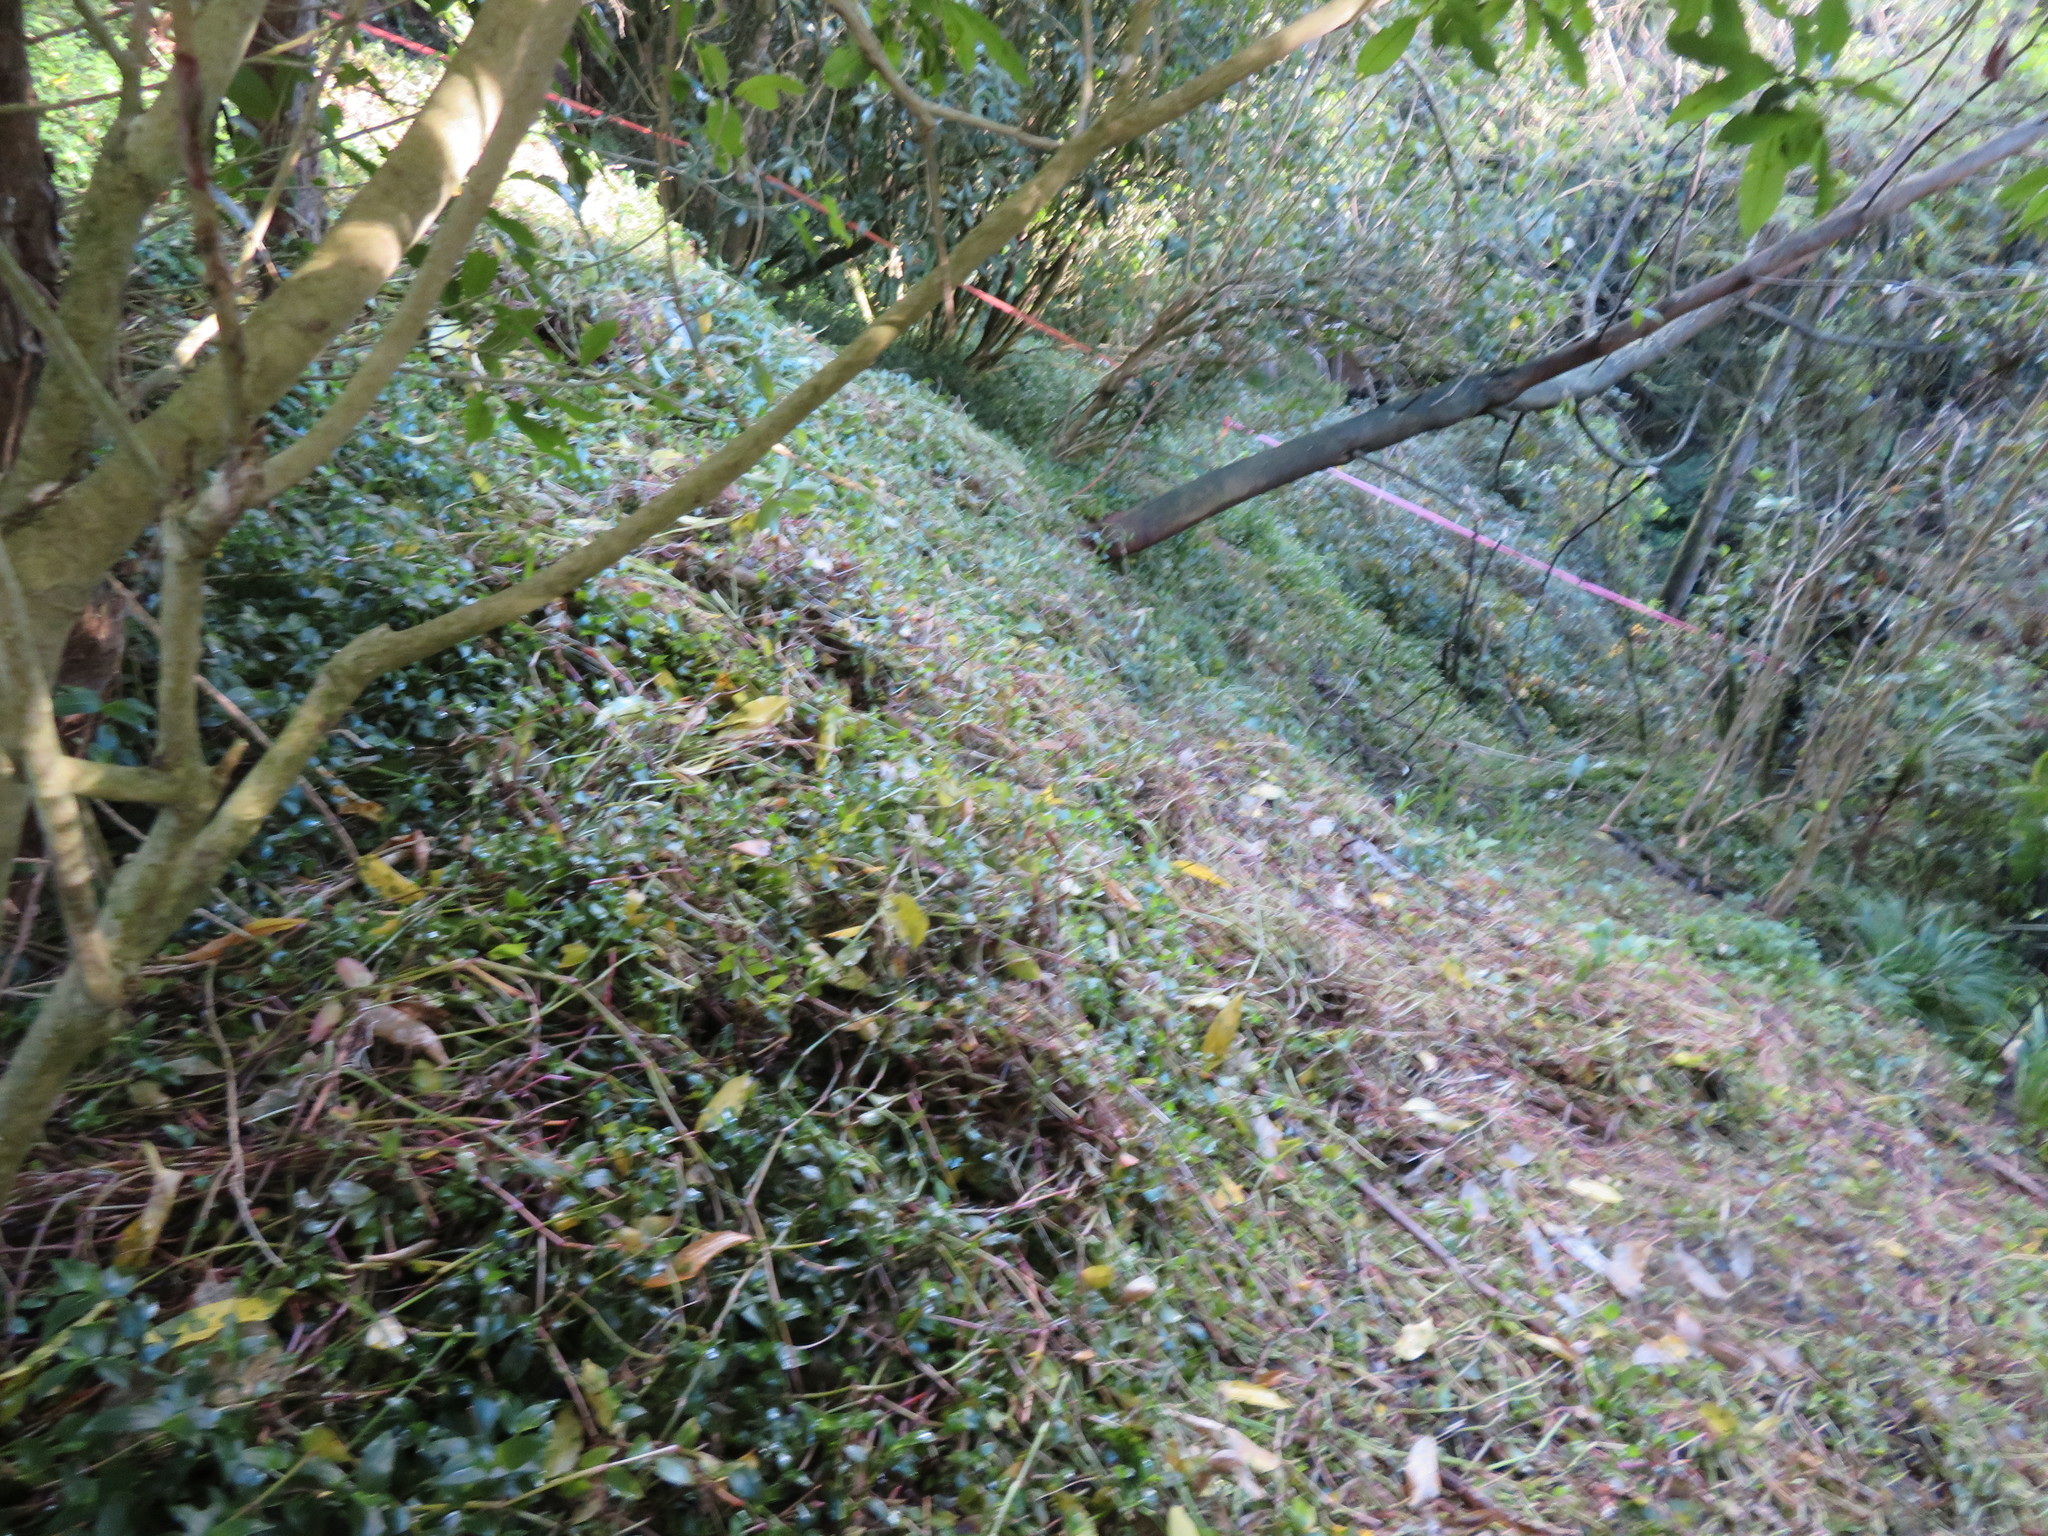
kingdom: Plantae
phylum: Tracheophyta
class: Liliopsida
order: Commelinales
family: Commelinaceae
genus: Tradescantia
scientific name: Tradescantia fluminensis
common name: Wandering-jew
